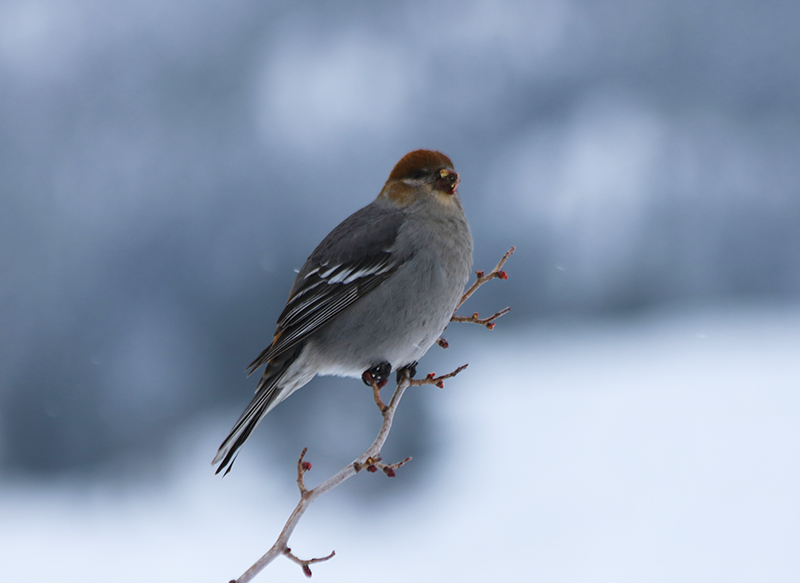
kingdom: Animalia
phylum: Chordata
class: Aves
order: Passeriformes
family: Fringillidae
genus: Pinicola
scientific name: Pinicola enucleator
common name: Pine grosbeak
